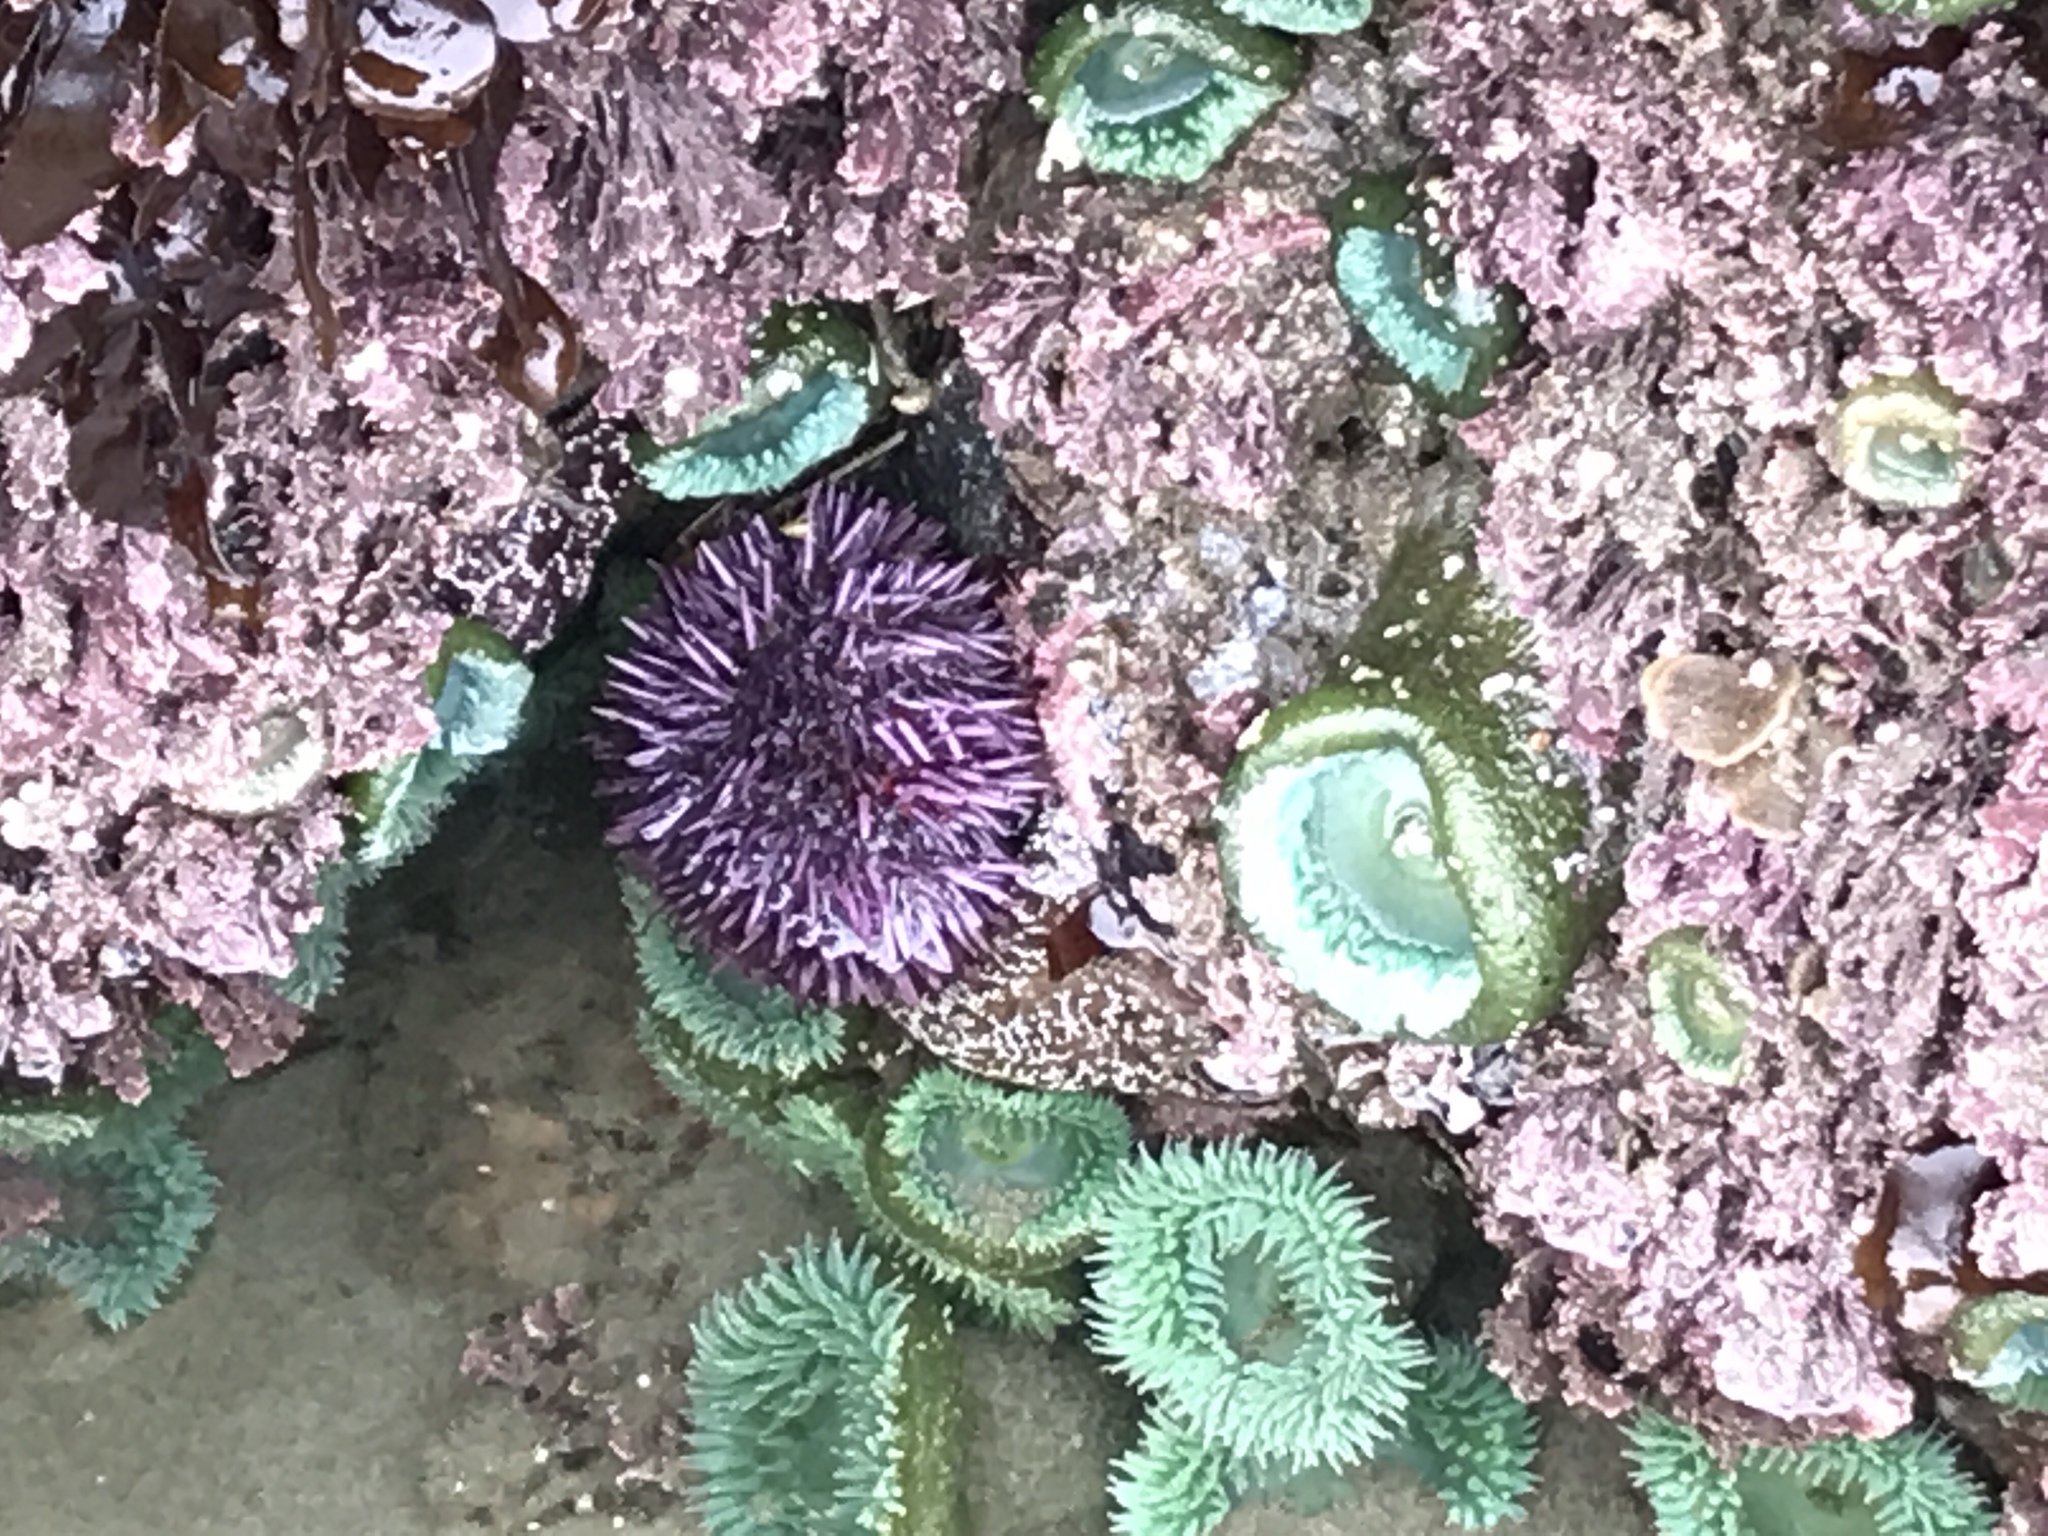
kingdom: Animalia
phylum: Echinodermata
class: Echinoidea
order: Camarodonta
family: Strongylocentrotidae
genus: Strongylocentrotus
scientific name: Strongylocentrotus purpuratus
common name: Purple sea urchin
